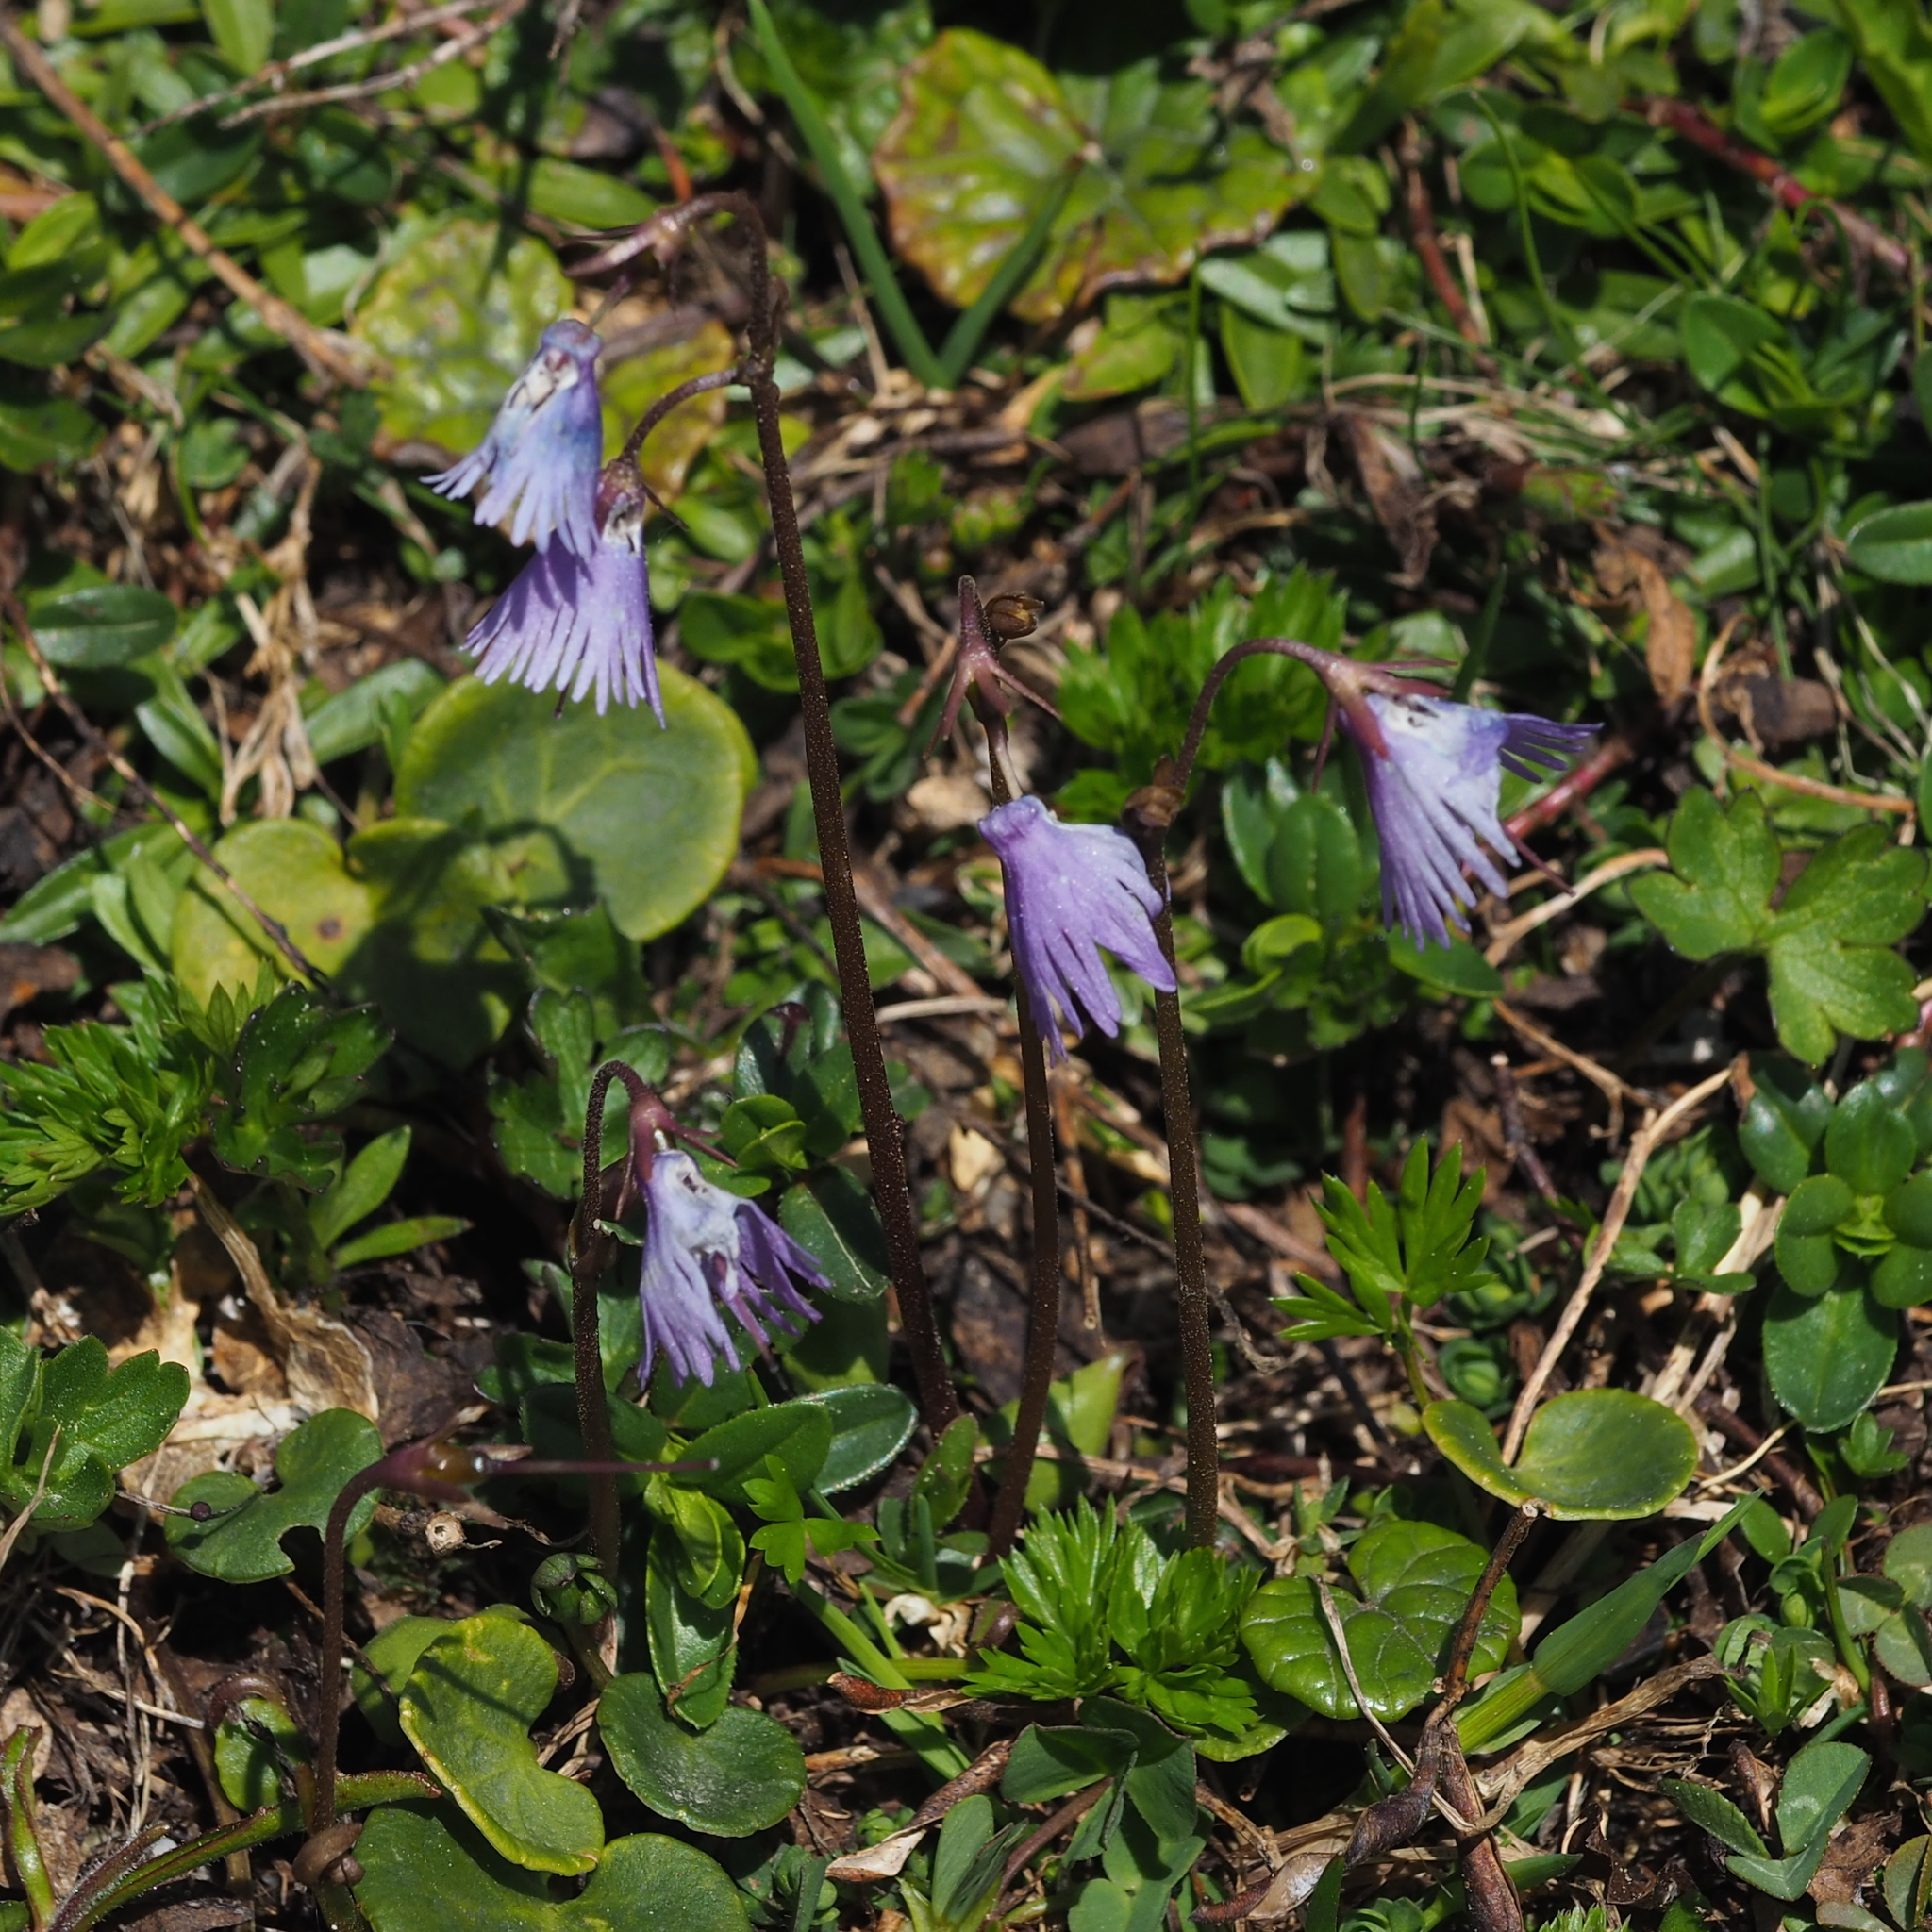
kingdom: Plantae
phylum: Tracheophyta
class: Magnoliopsida
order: Ericales
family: Primulaceae
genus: Soldanella
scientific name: Soldanella alpina
